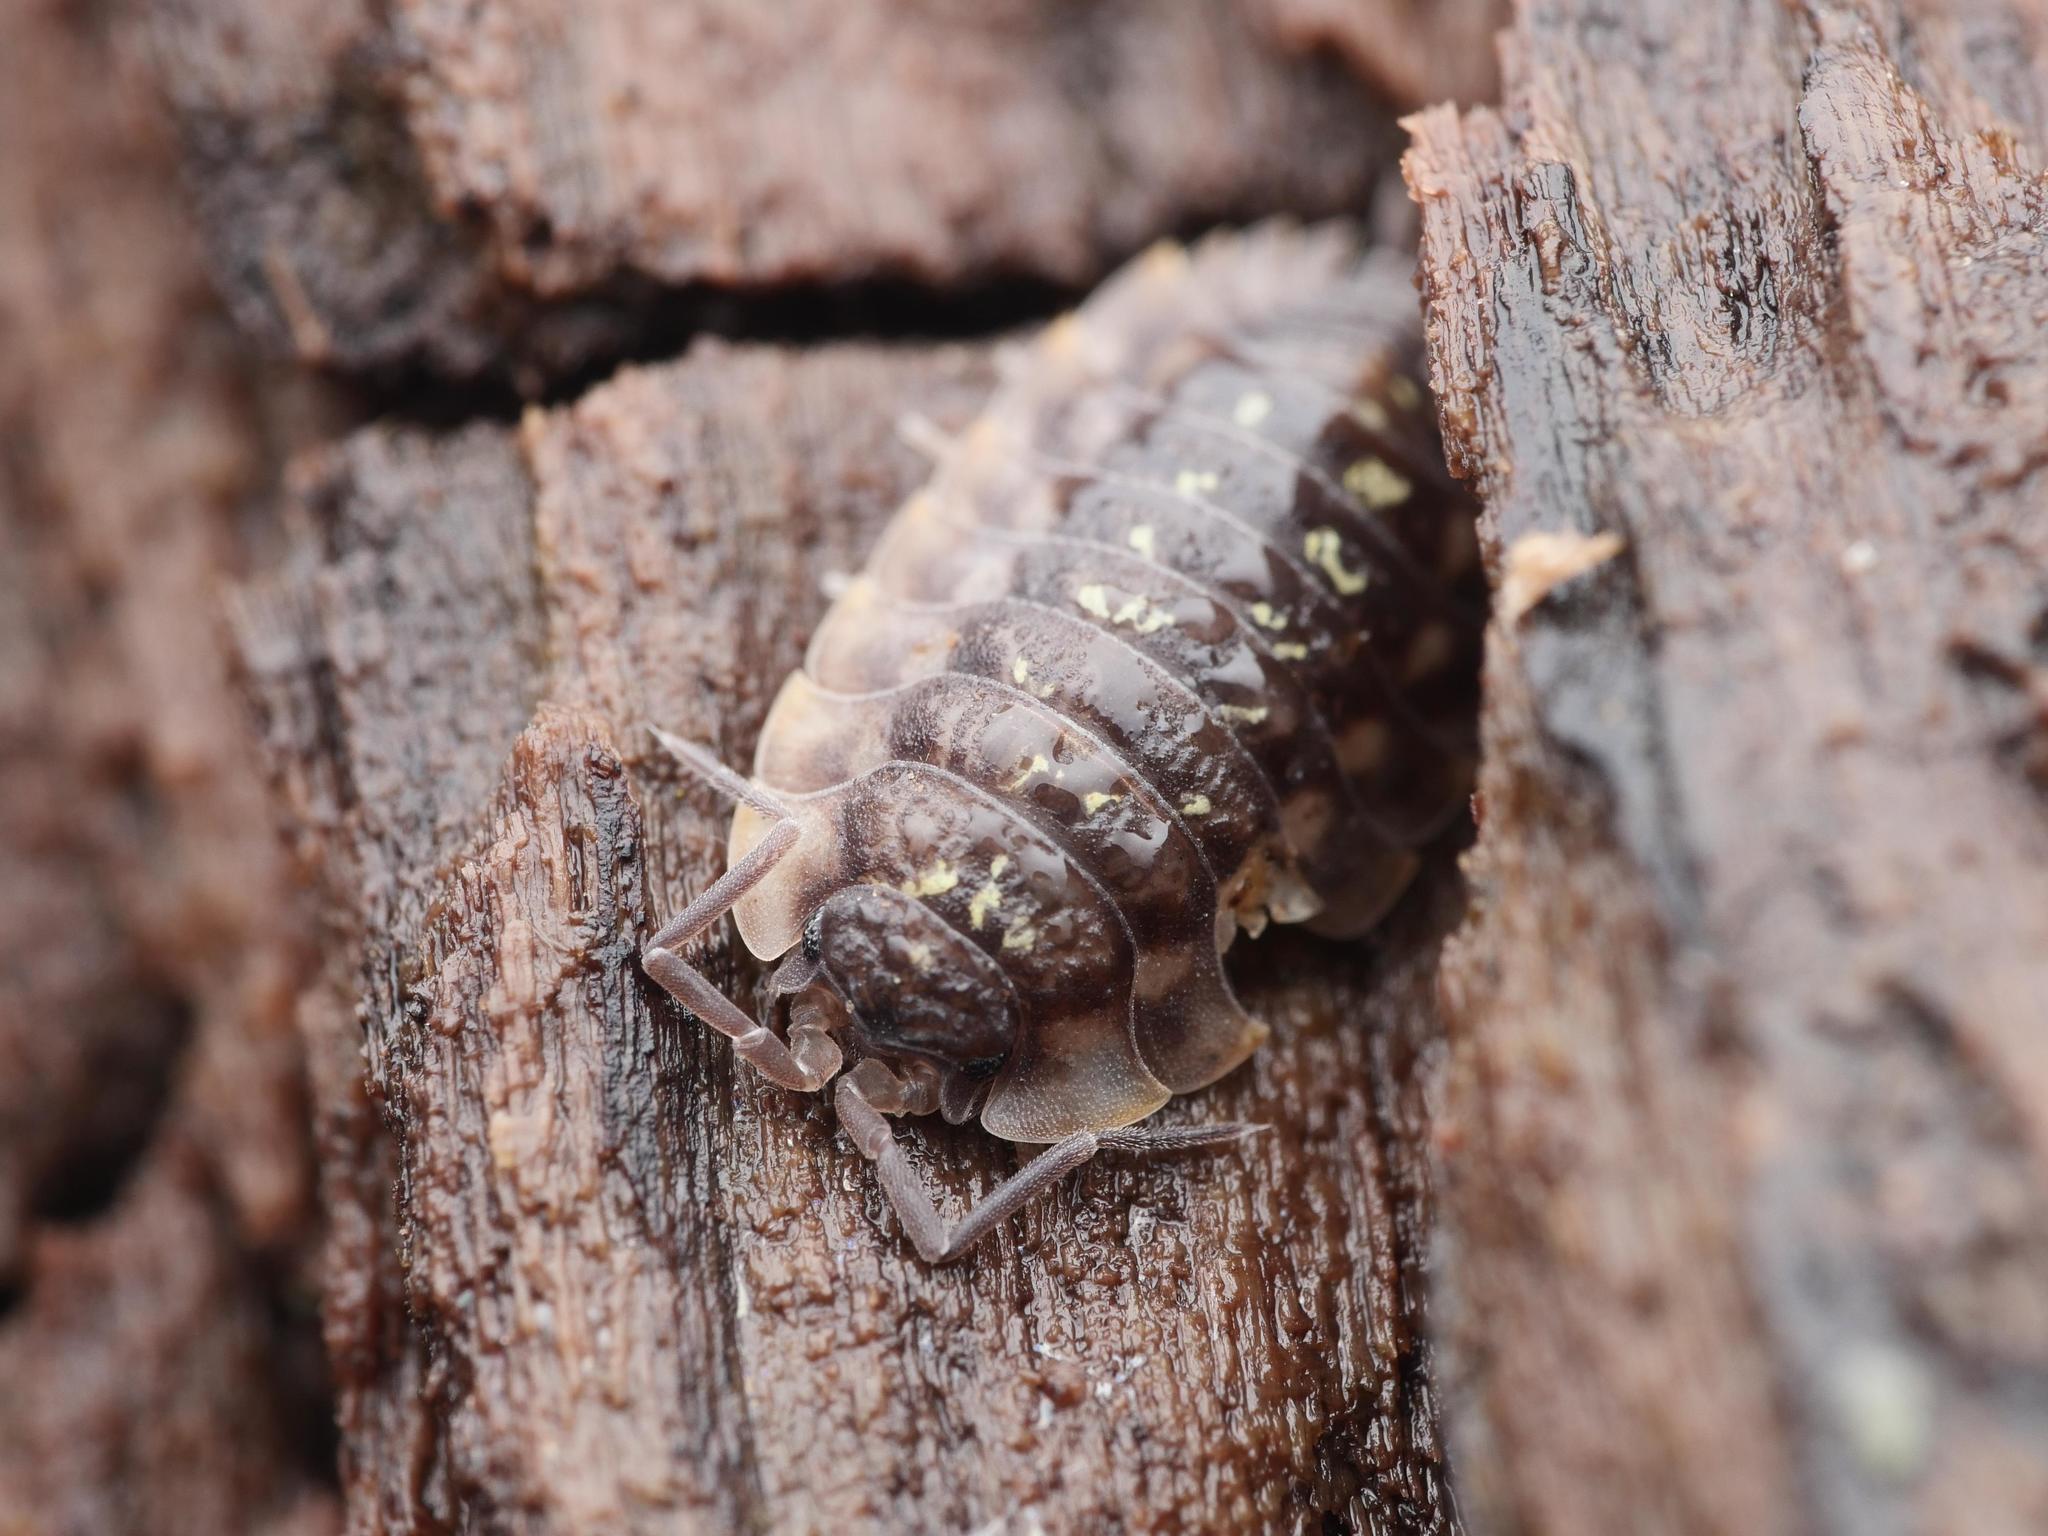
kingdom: Animalia
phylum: Arthropoda
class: Malacostraca
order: Isopoda
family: Oniscidae
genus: Oniscus
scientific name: Oniscus asellus
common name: Common shiny woodlouse
